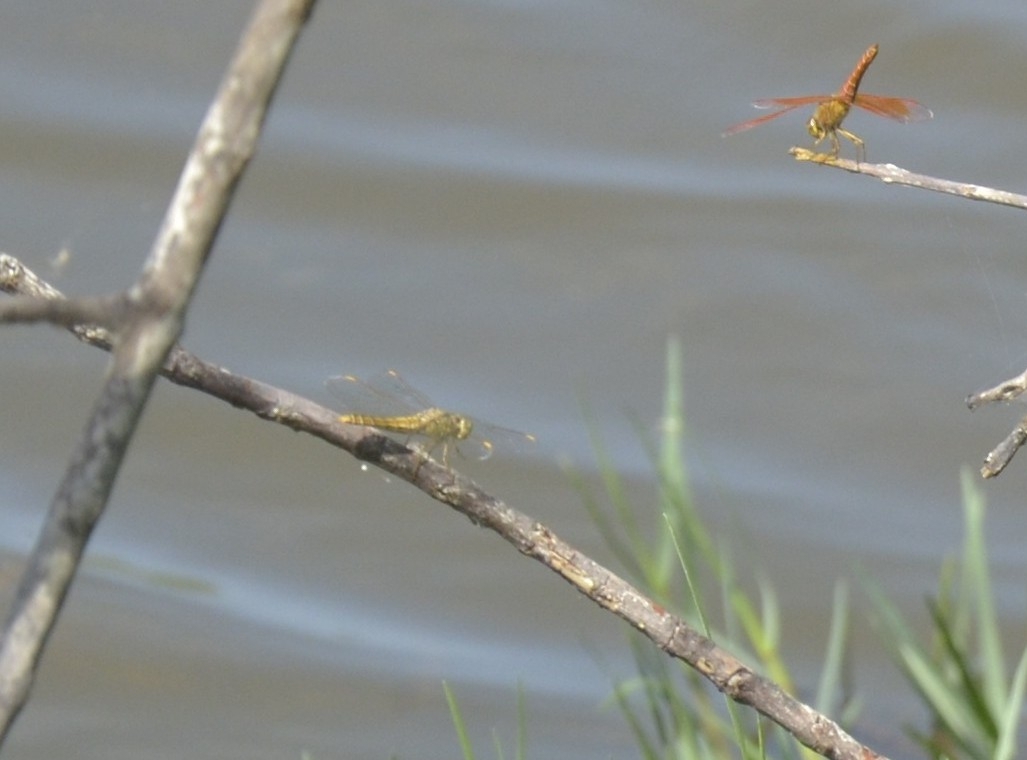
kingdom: Animalia
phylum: Arthropoda
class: Insecta
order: Odonata
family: Libellulidae
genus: Brachythemis
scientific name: Brachythemis contaminata
